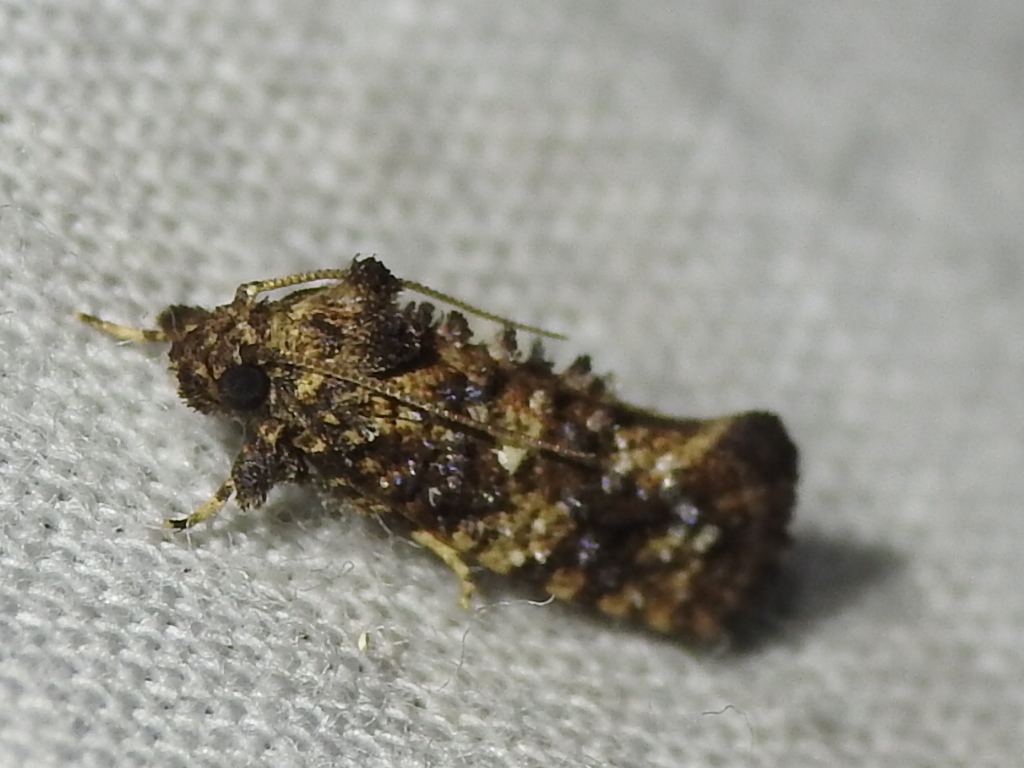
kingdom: Animalia
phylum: Arthropoda
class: Insecta
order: Lepidoptera
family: Tineidae
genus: Acrolophus
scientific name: Acrolophus cressoni
